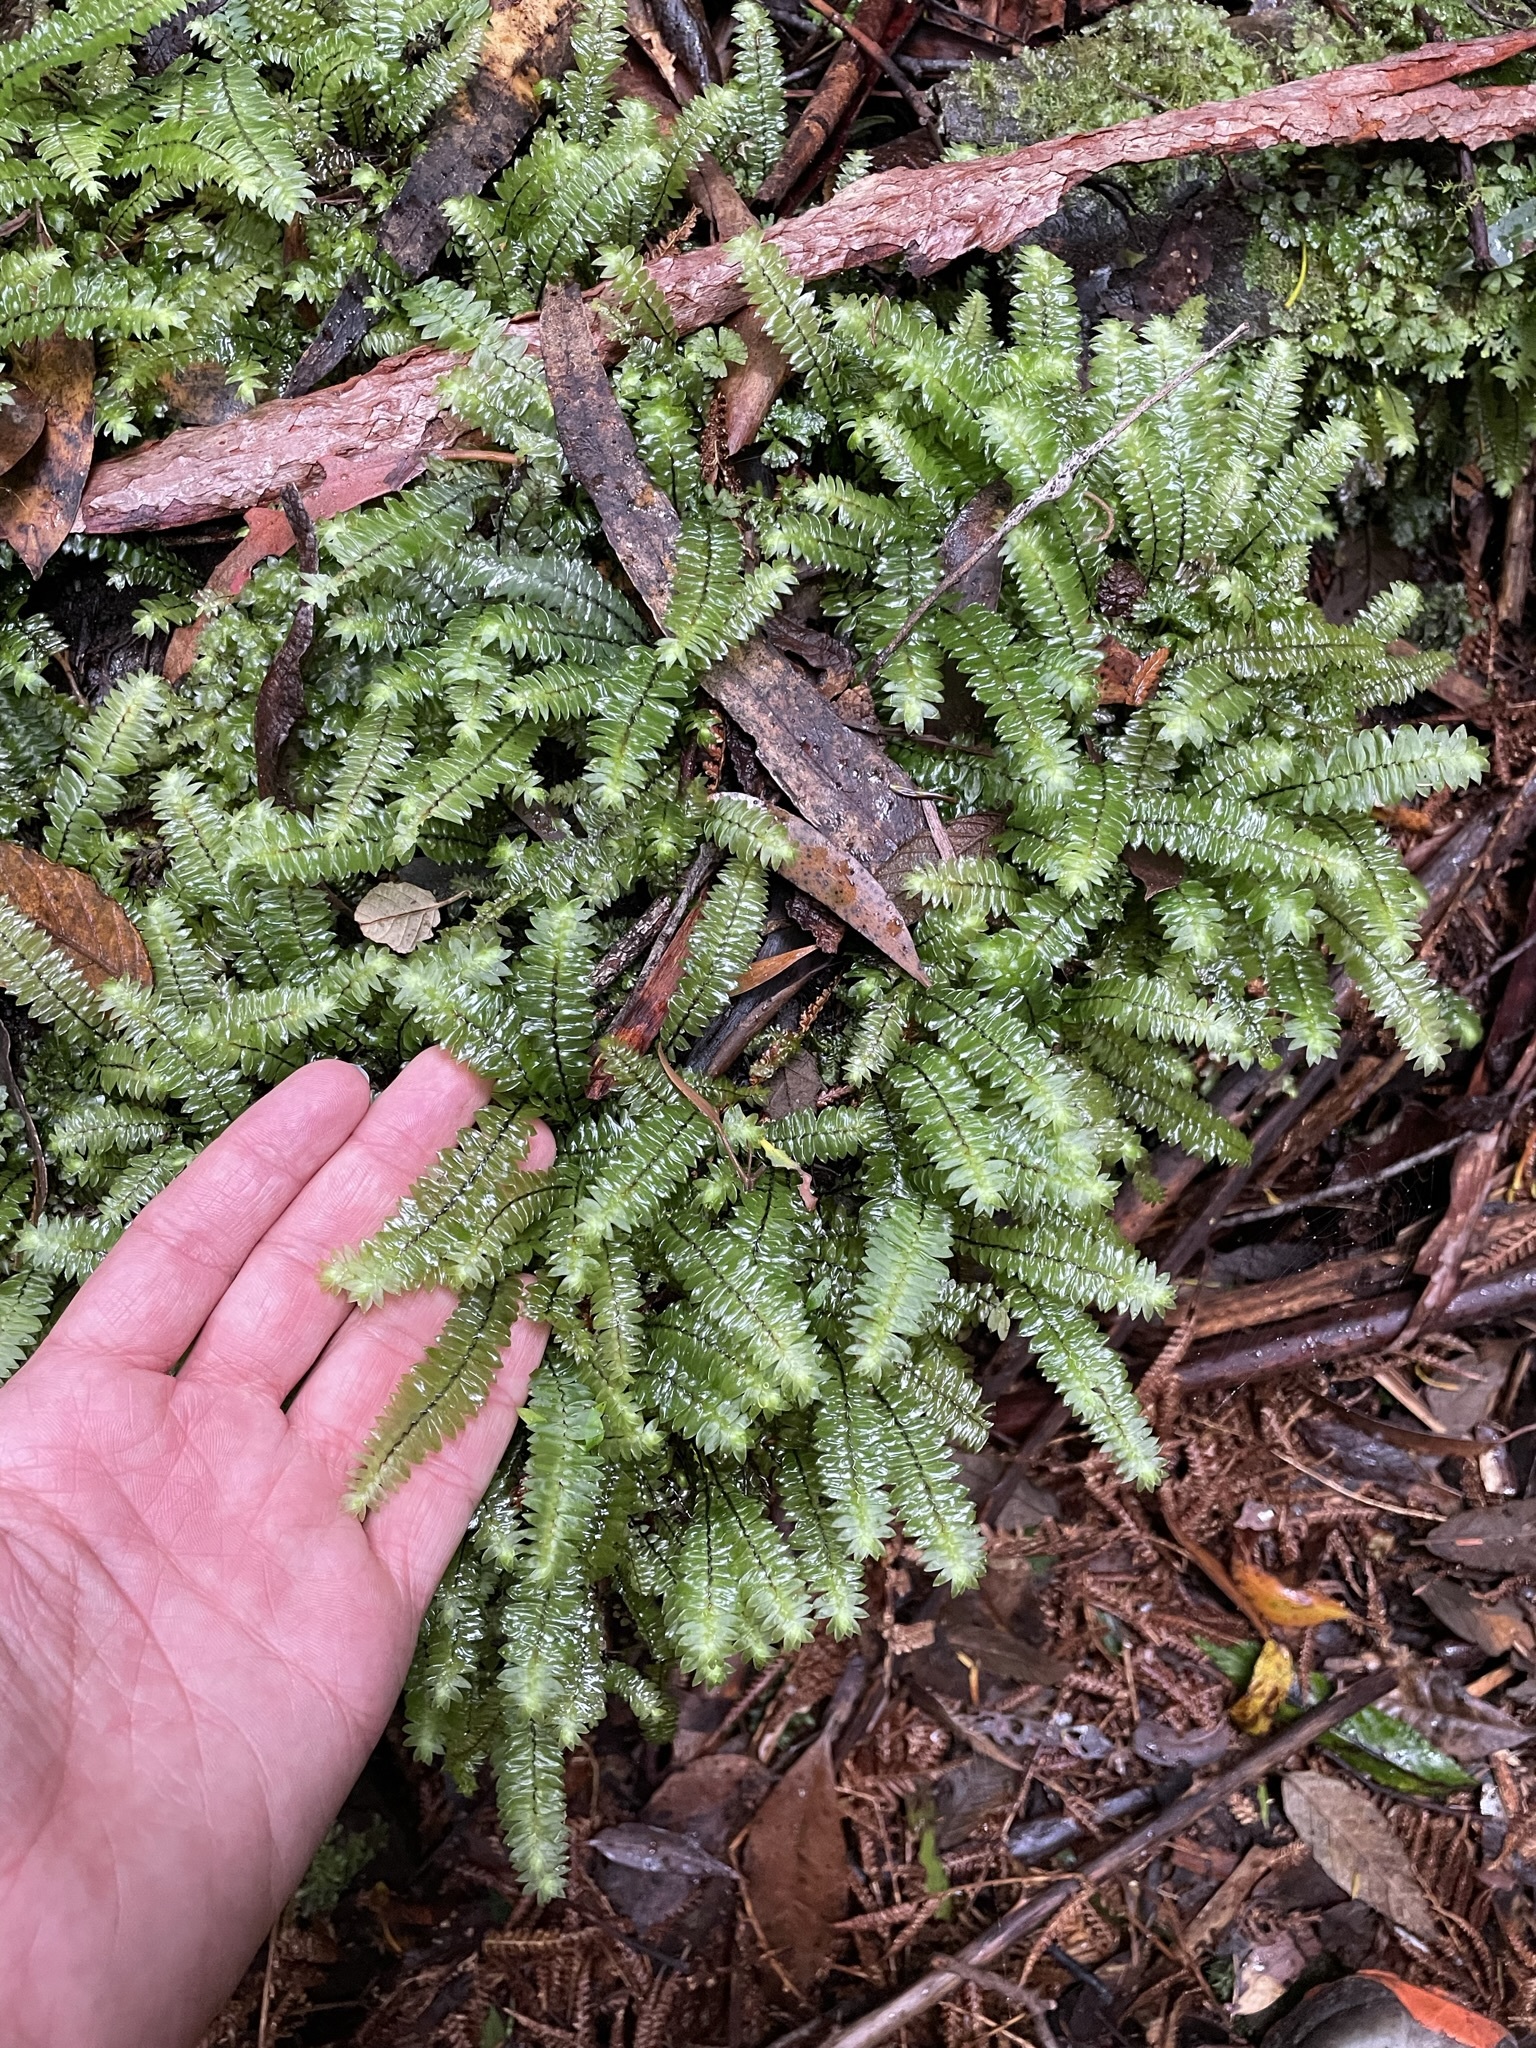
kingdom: Plantae
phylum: Bryophyta
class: Bryopsida
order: Hypopterygiales
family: Hypopterygiaceae
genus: Cyathophorum
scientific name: Cyathophorum bulbosum
